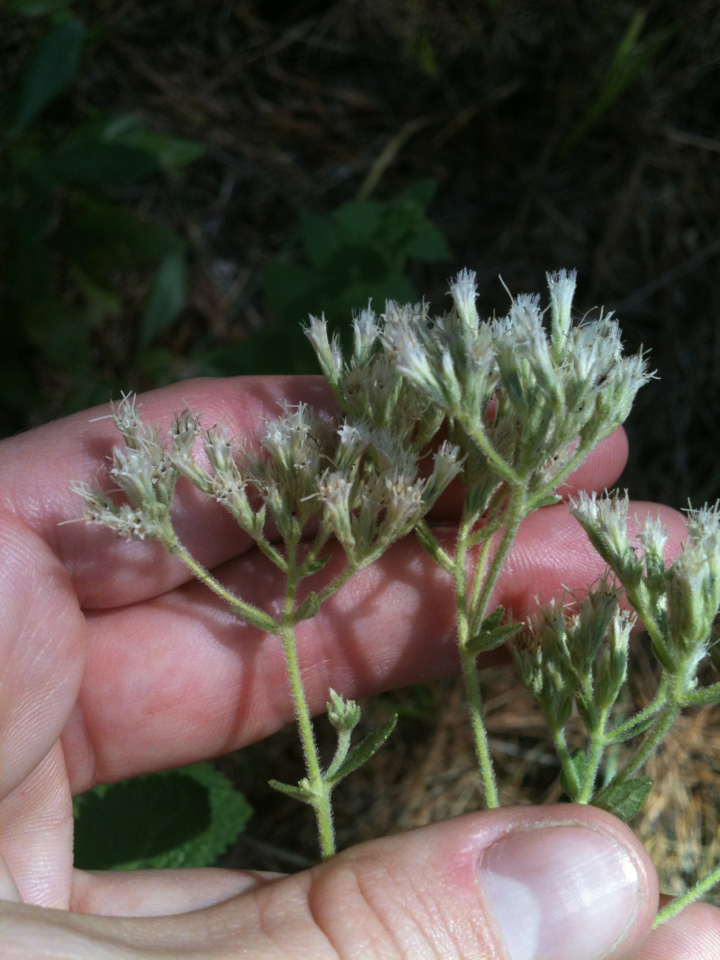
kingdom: Plantae
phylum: Tracheophyta
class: Magnoliopsida
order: Asterales
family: Asteraceae
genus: Eupatorium
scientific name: Eupatorium rotundifolium
